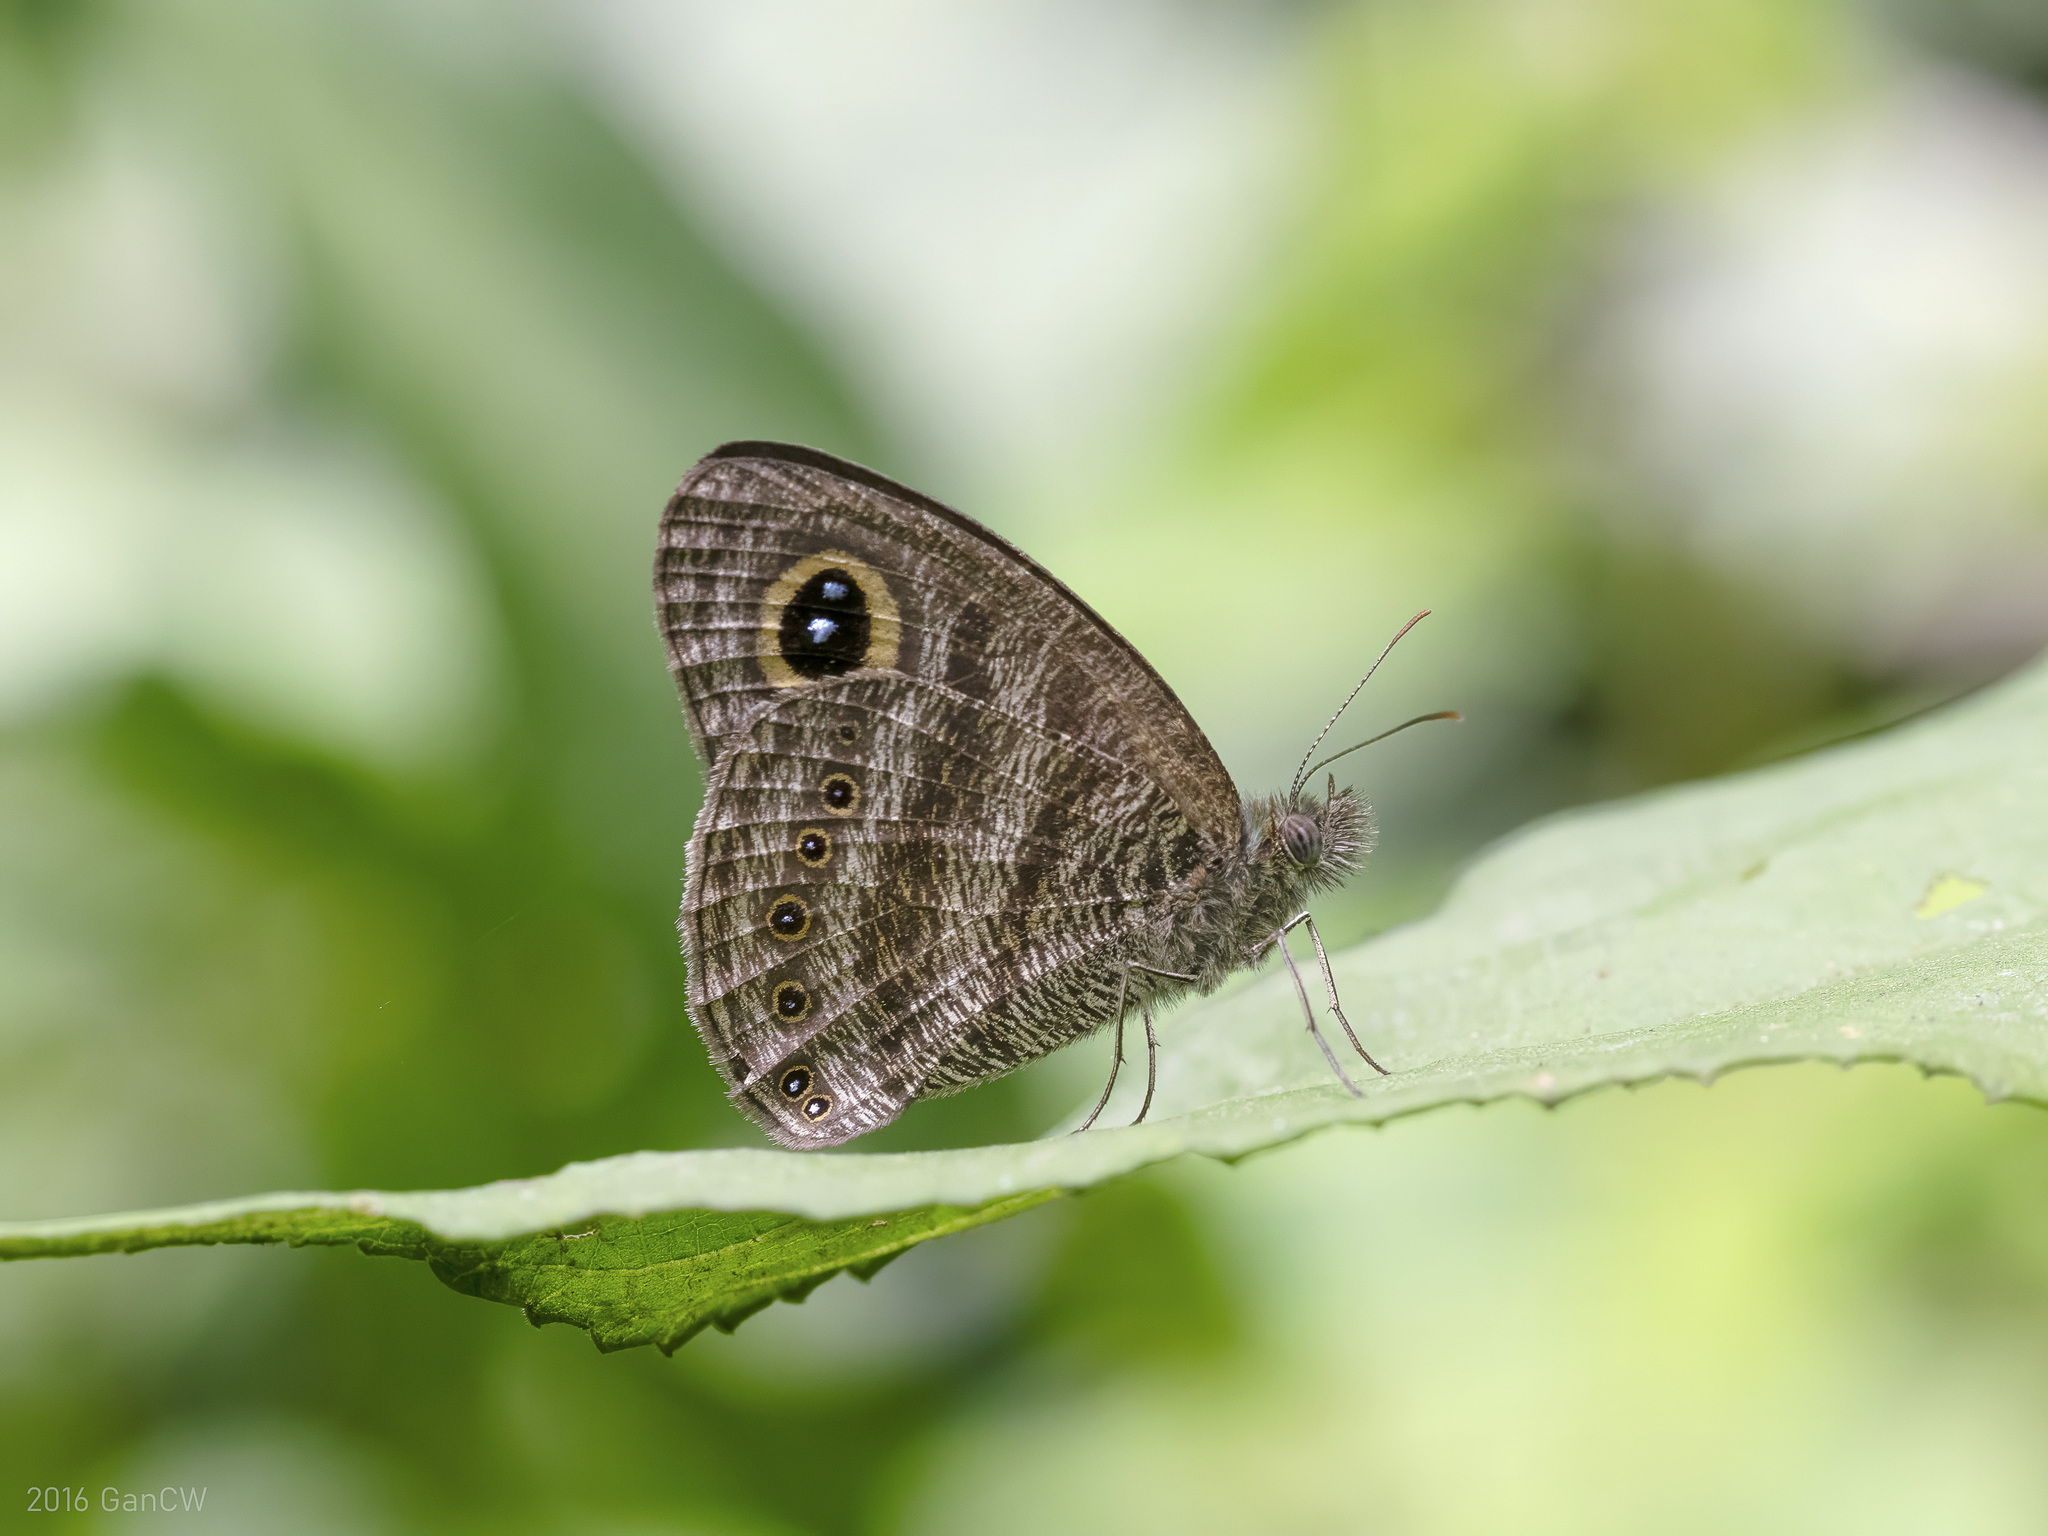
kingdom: Animalia
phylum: Arthropoda
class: Insecta
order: Lepidoptera
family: Nymphalidae
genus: Ypthima
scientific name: Ypthima fasciata
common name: Malayan six-ring
